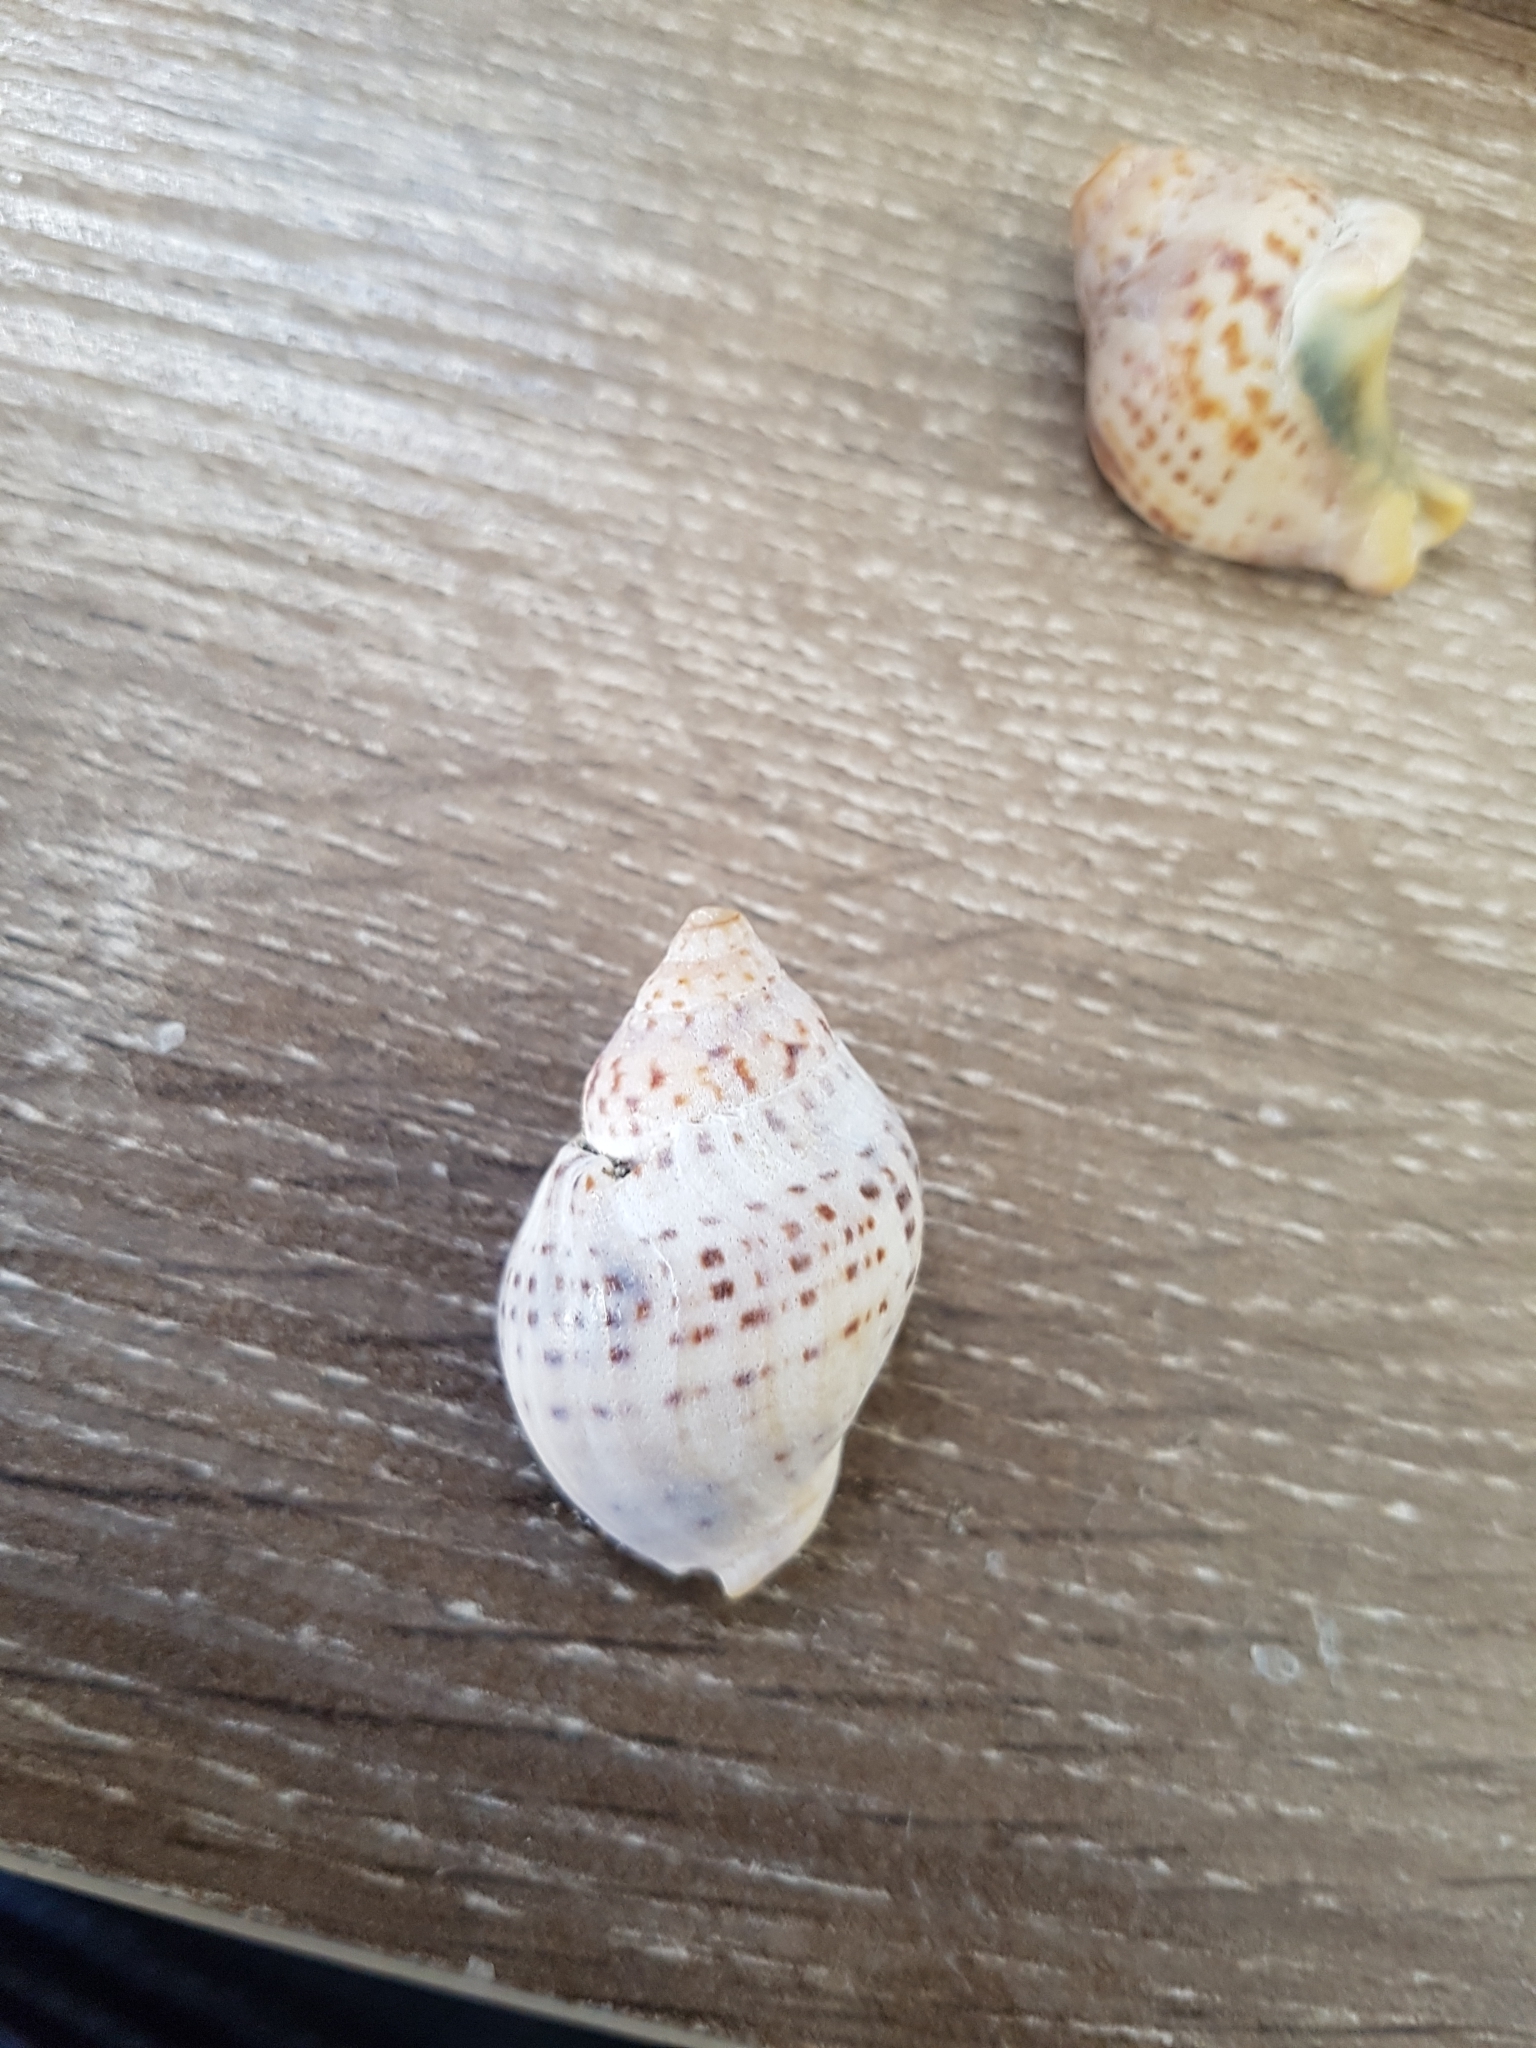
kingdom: Animalia
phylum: Mollusca
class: Gastropoda
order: Neogastropoda
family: Cominellidae
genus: Cominella
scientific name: Cominella adspersa
